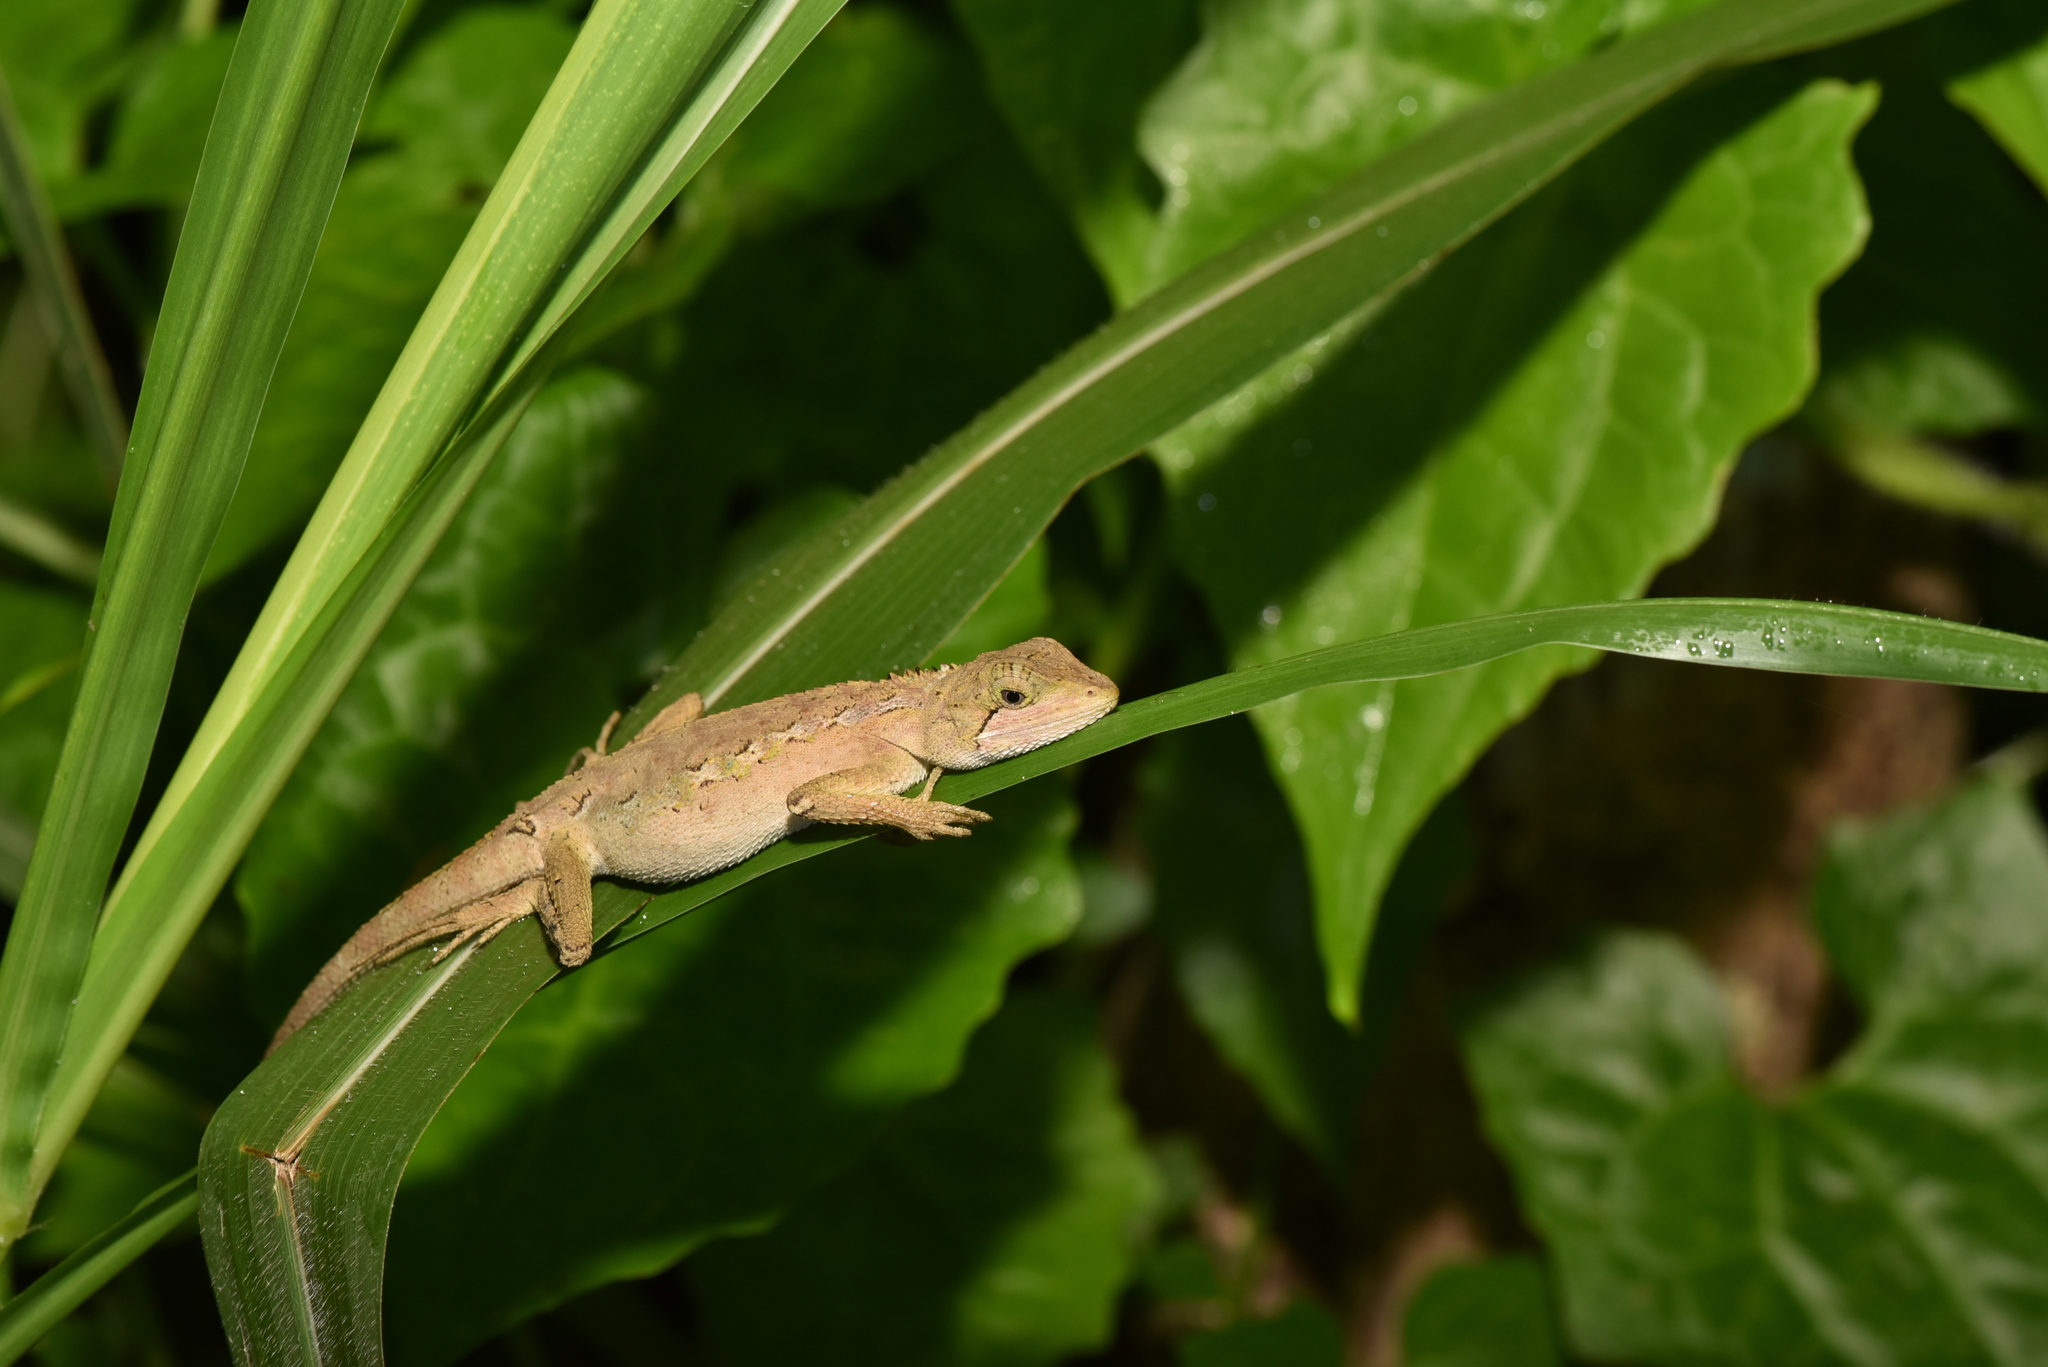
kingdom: Animalia
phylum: Chordata
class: Squamata
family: Agamidae
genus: Diploderma
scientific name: Diploderma swinhonis
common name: Taiwan japalure
